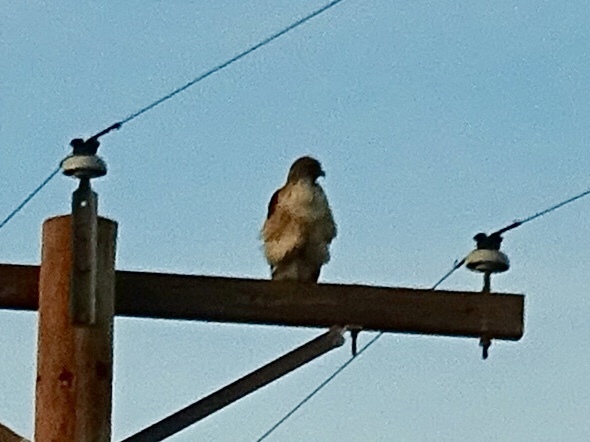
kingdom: Animalia
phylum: Chordata
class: Aves
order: Accipitriformes
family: Accipitridae
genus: Buteo
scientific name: Buteo jamaicensis
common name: Red-tailed hawk
